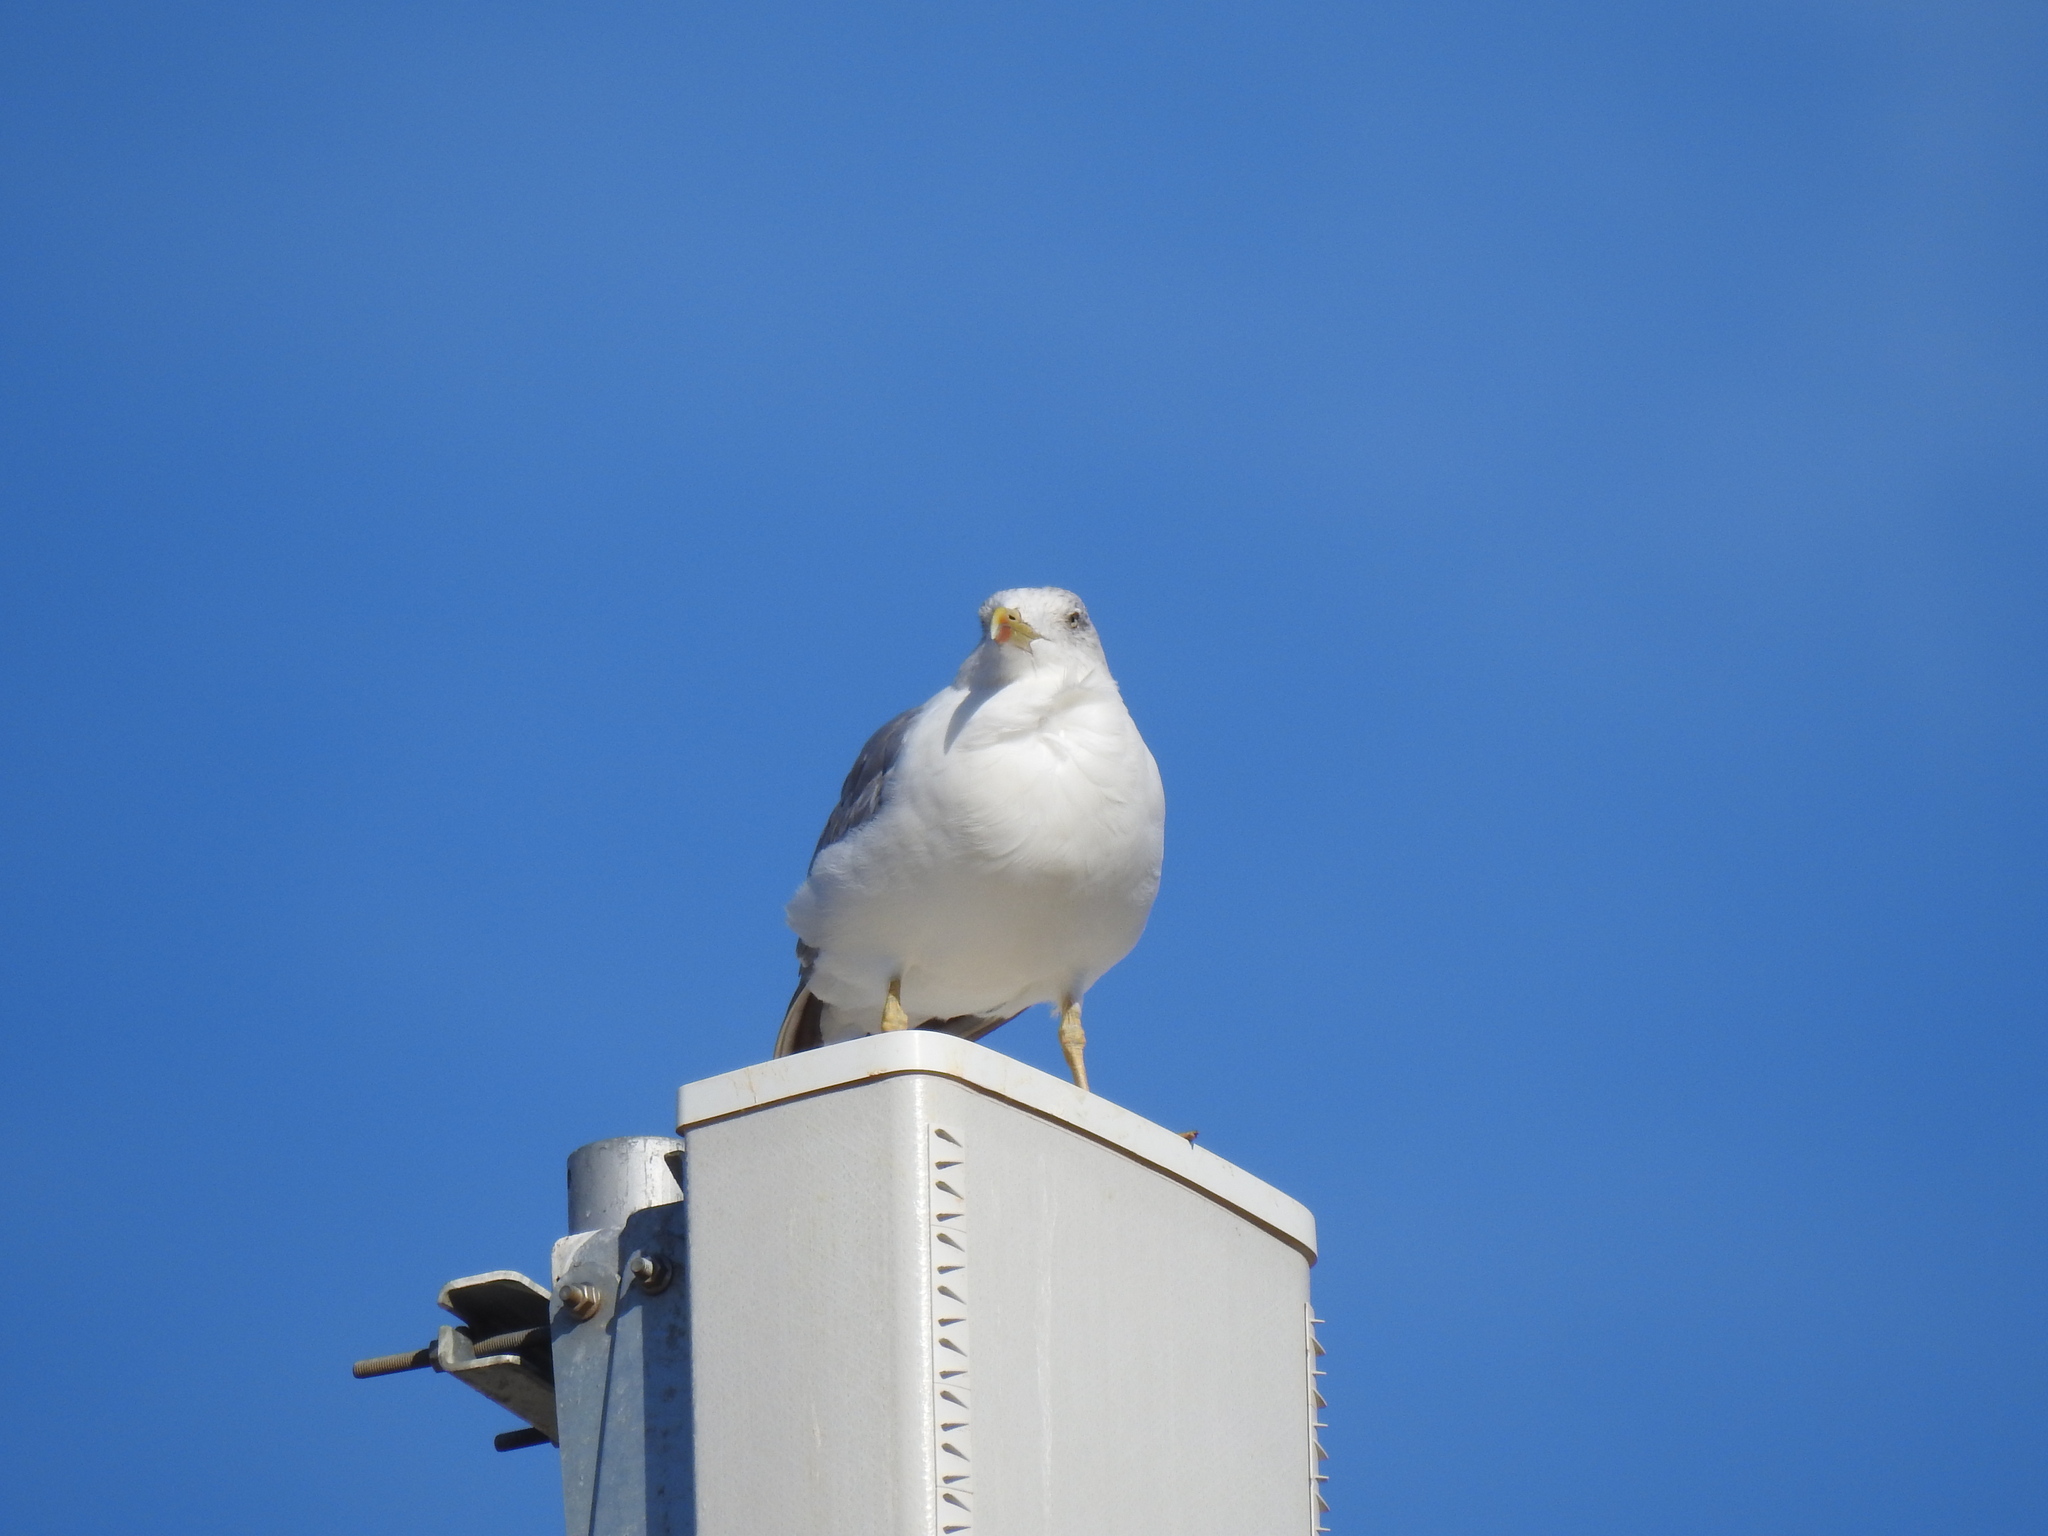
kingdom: Animalia
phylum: Chordata
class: Aves
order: Charadriiformes
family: Laridae
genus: Larus
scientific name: Larus michahellis
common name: Yellow-legged gull
